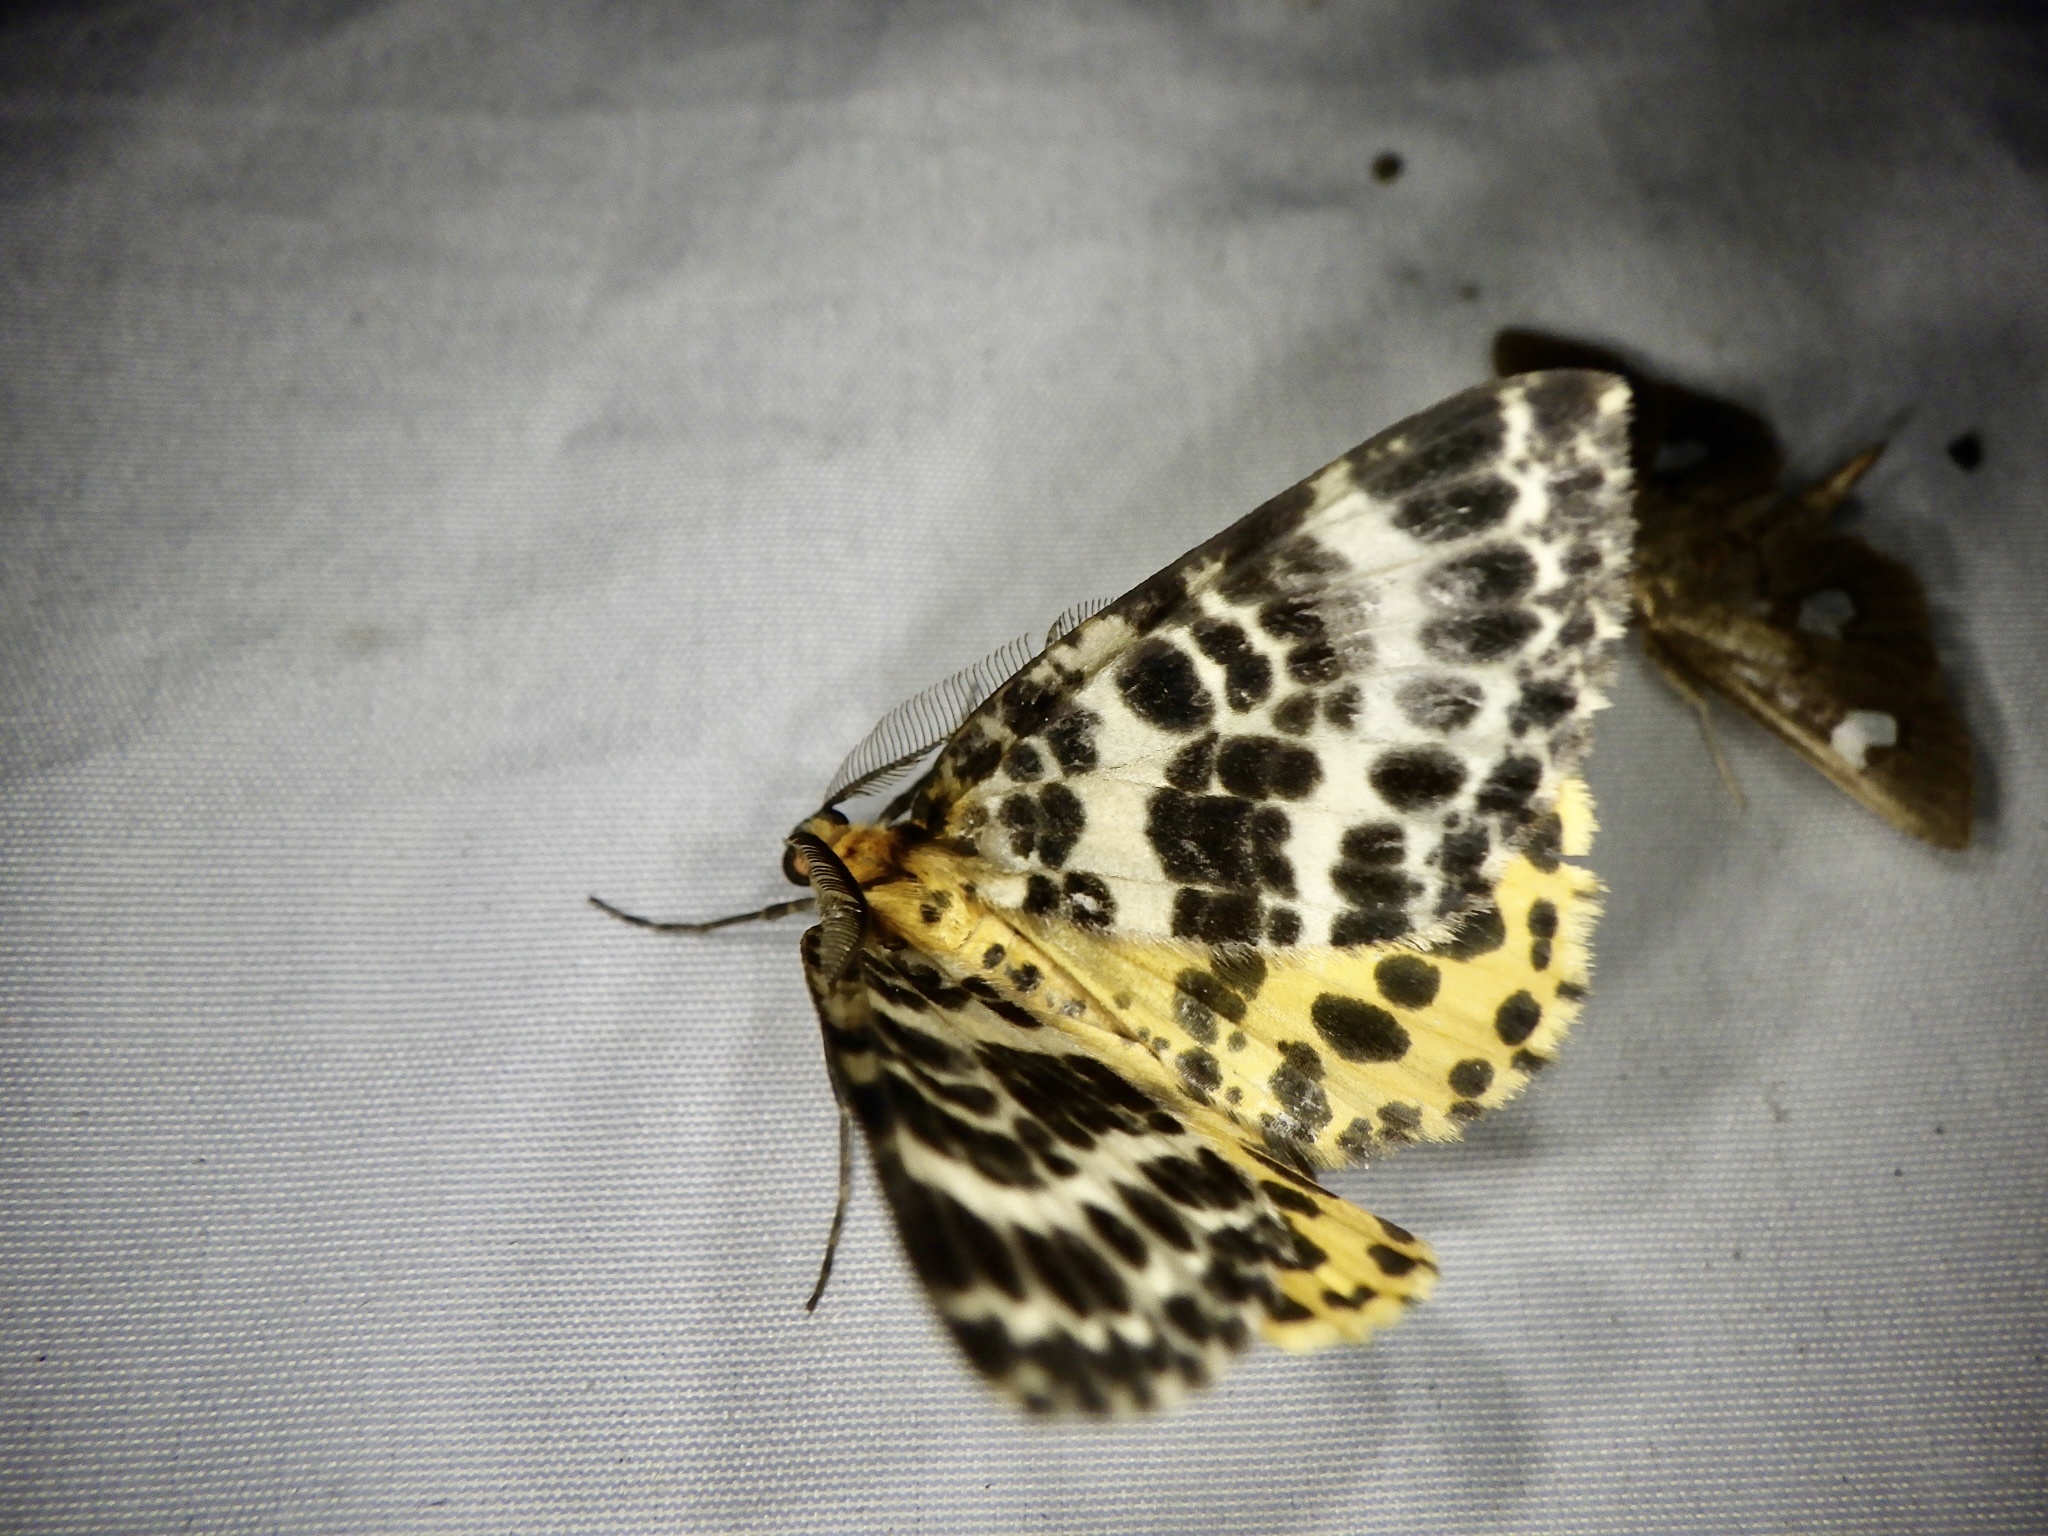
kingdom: Animalia
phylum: Arthropoda
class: Insecta
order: Lepidoptera
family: Geometridae
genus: Arichanna
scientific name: Arichanna melanaria
